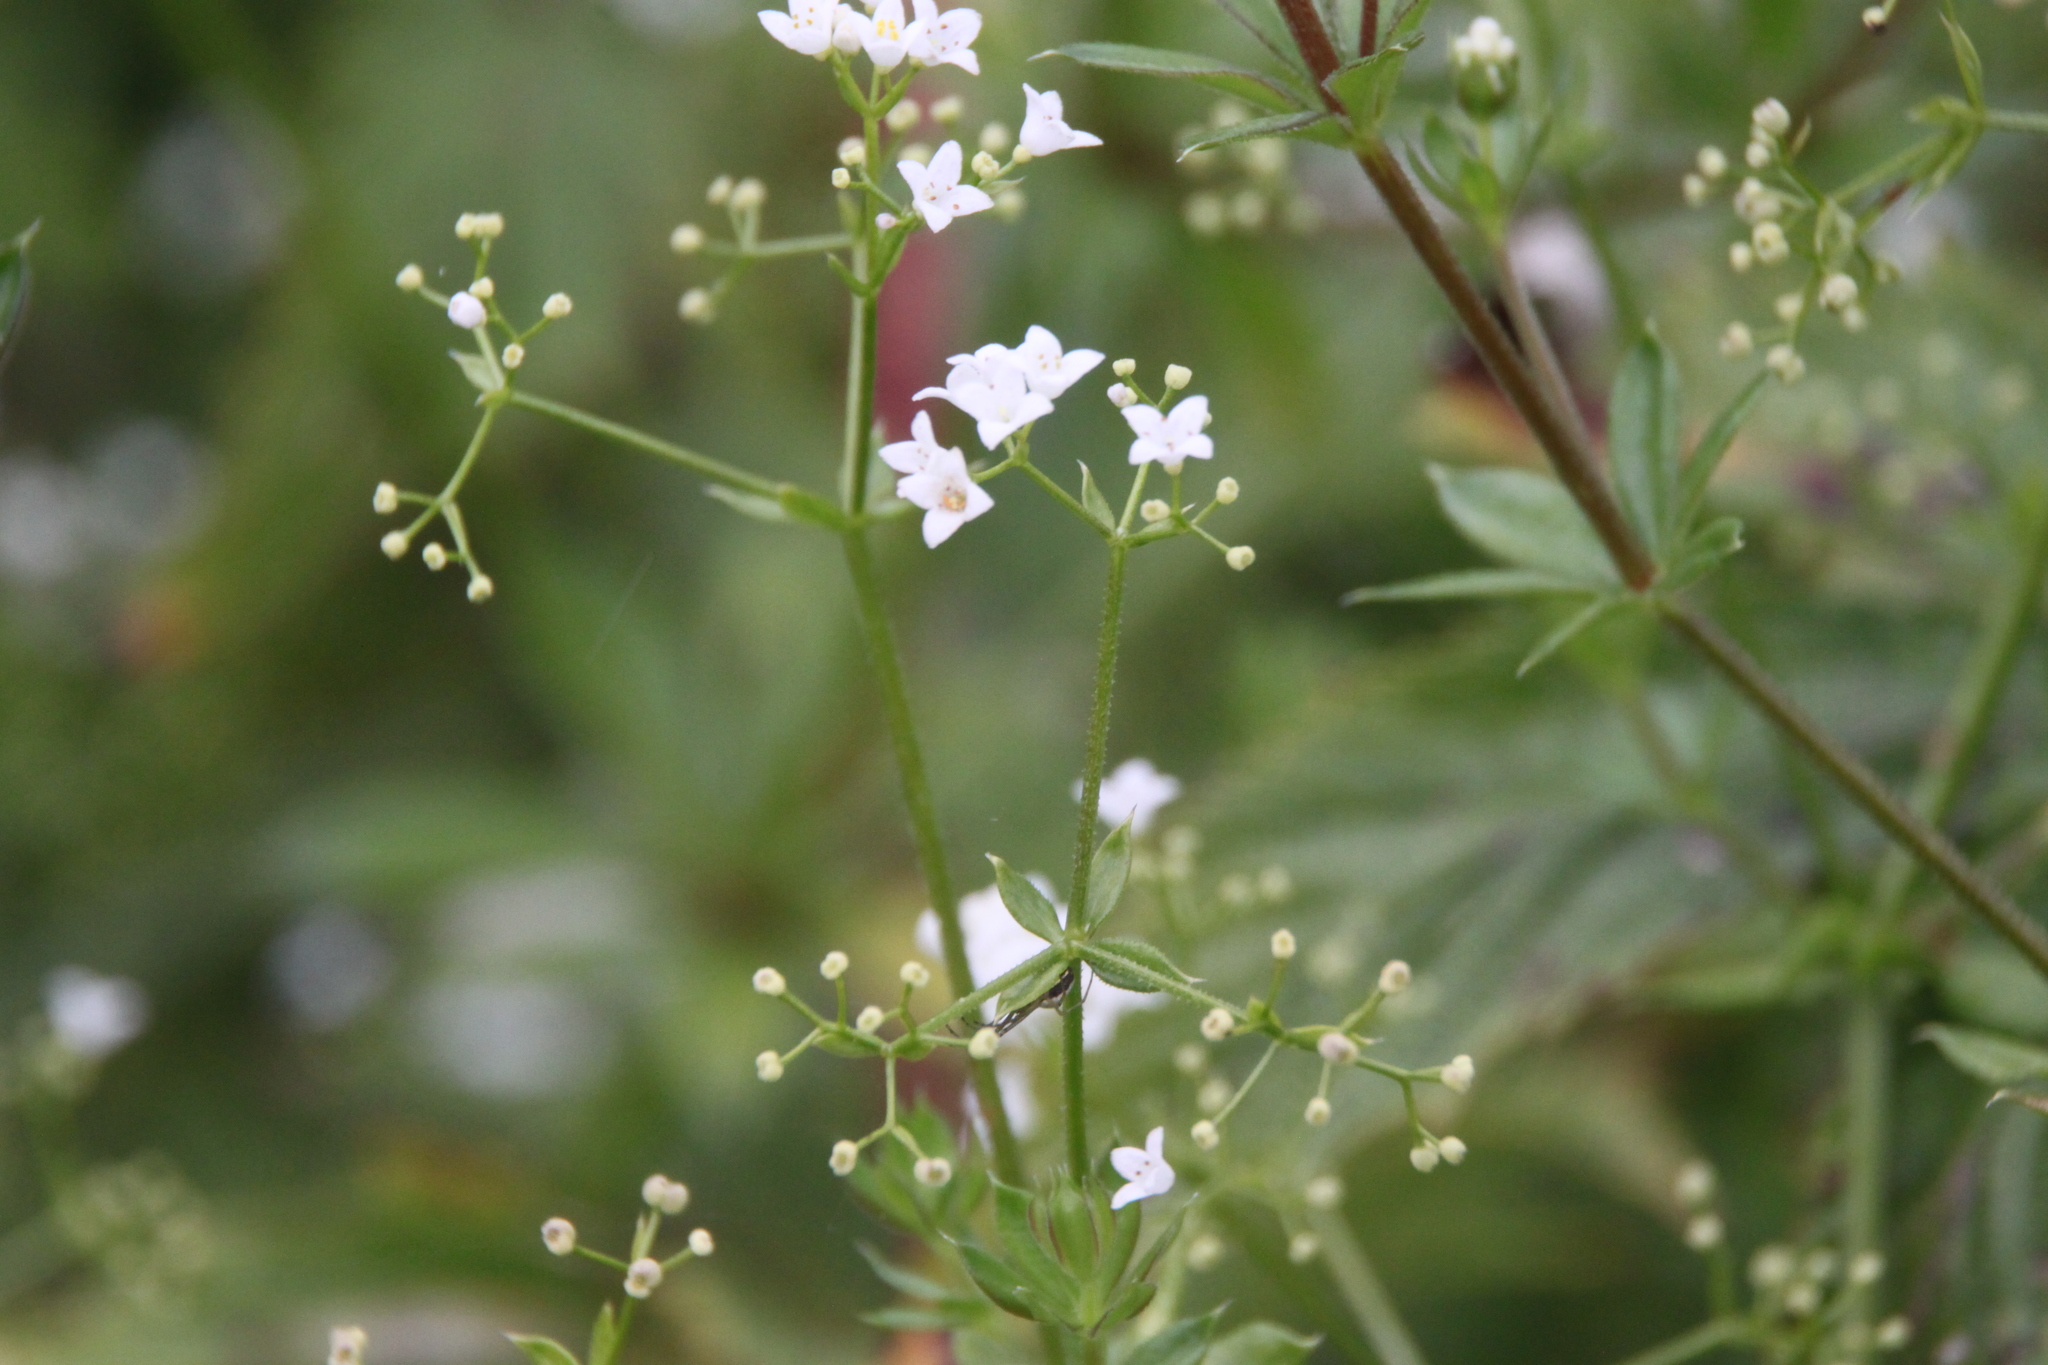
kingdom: Plantae
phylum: Tracheophyta
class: Magnoliopsida
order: Gentianales
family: Rubiaceae
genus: Galium
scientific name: Galium rivale
